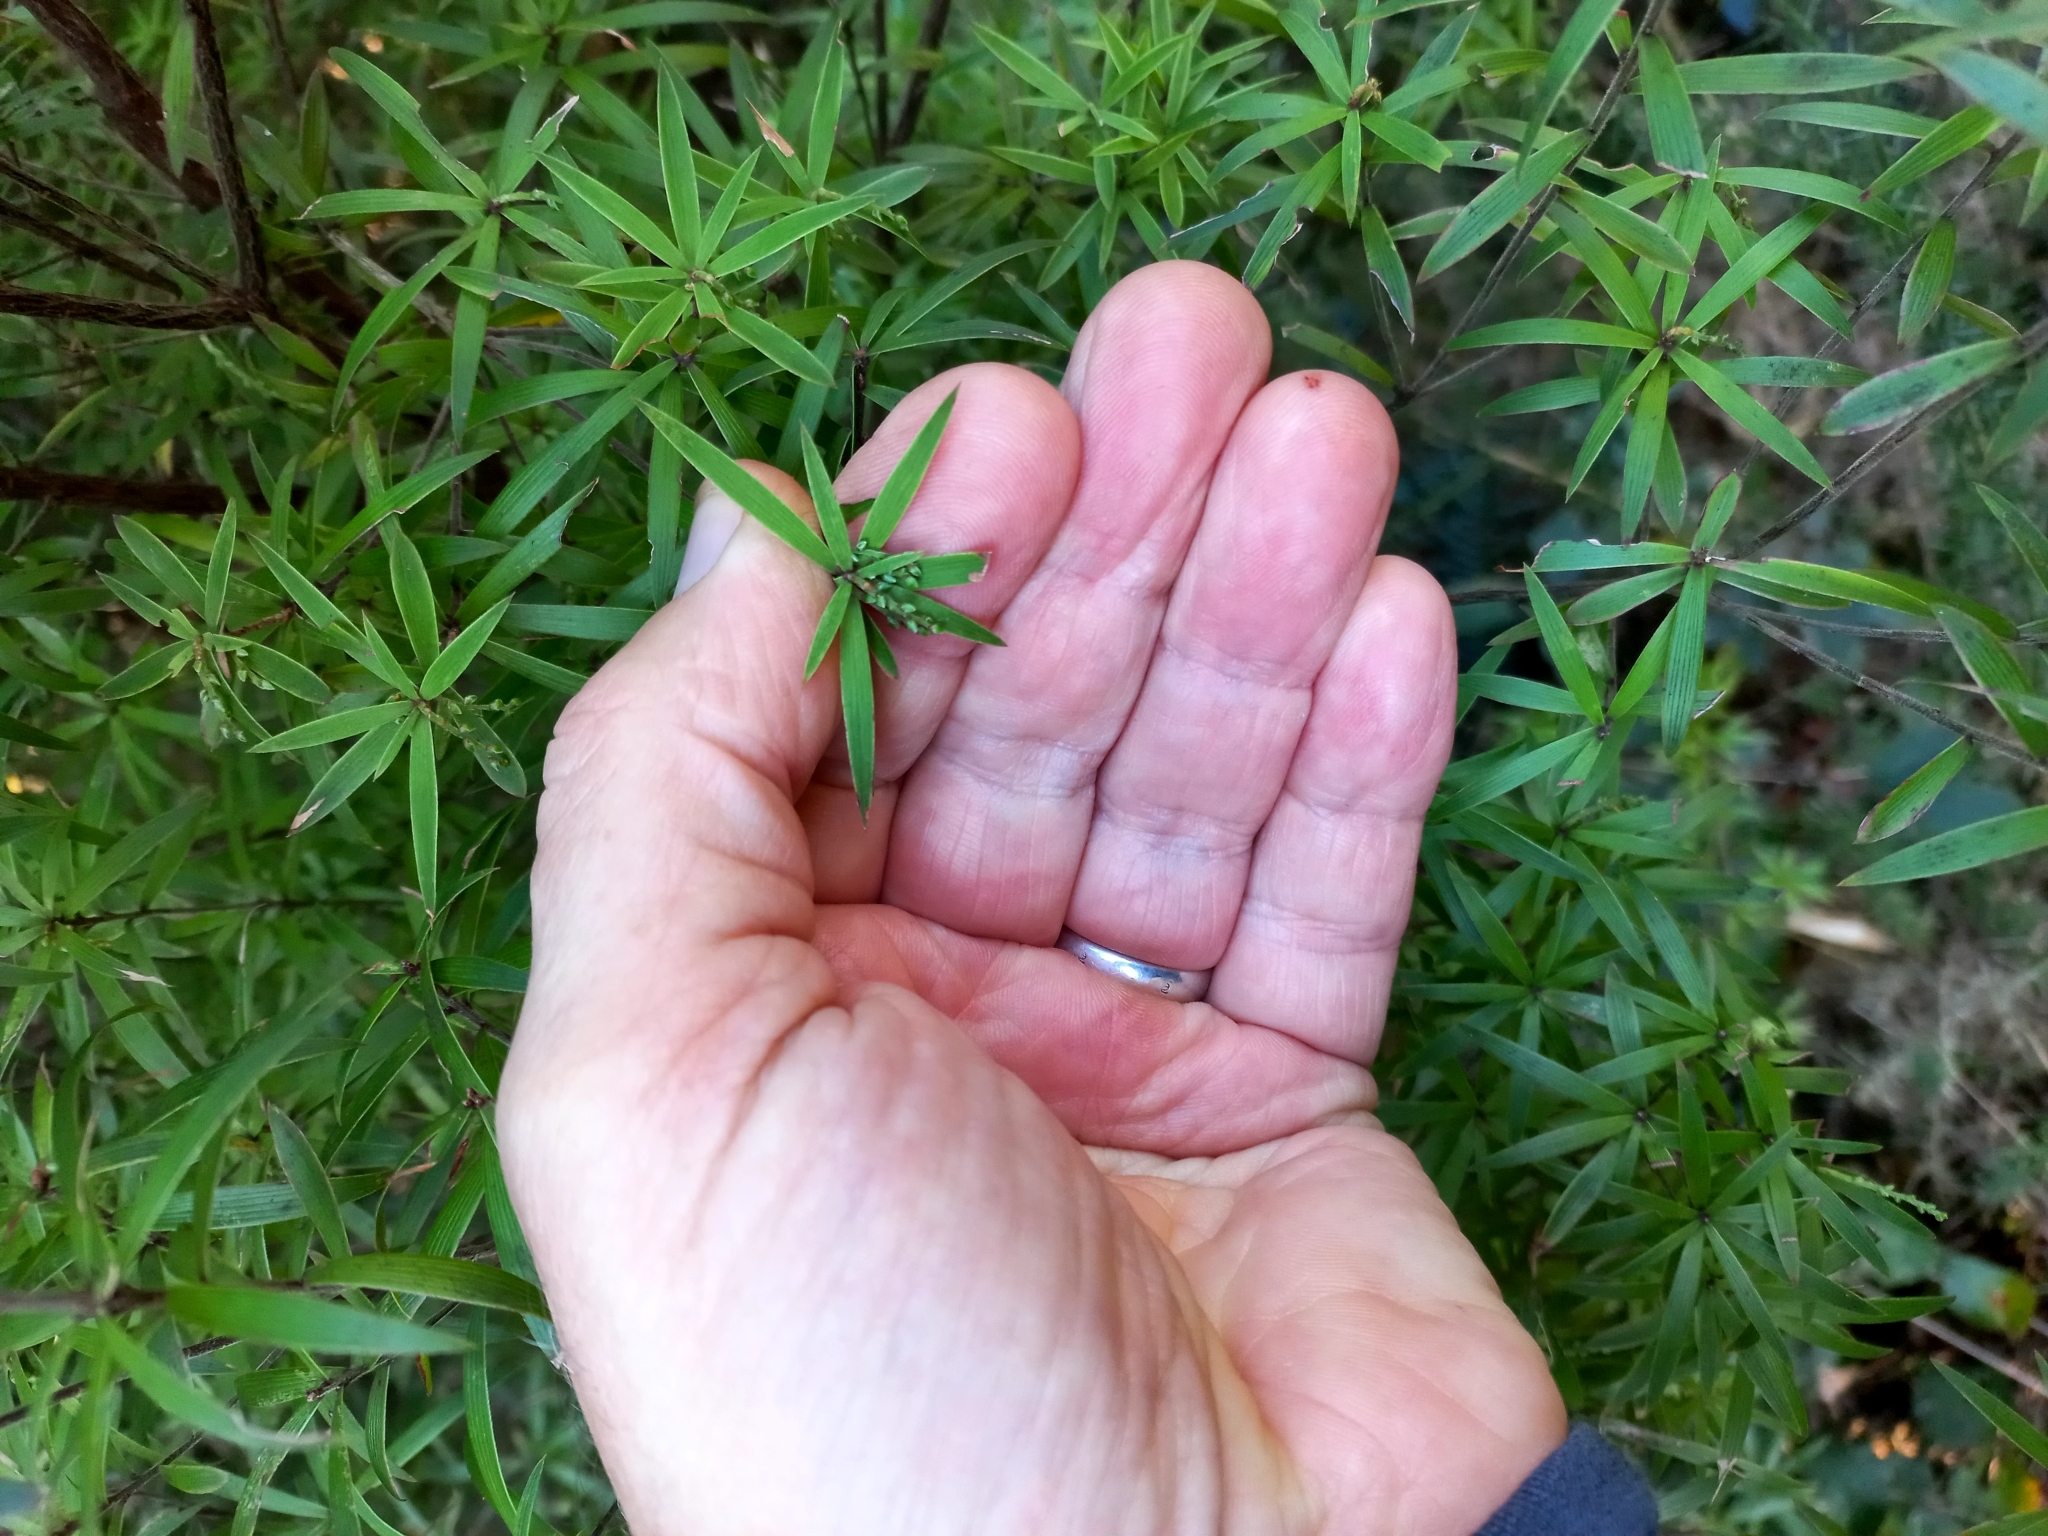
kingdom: Plantae
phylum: Tracheophyta
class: Magnoliopsida
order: Ericales
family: Ericaceae
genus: Leucopogon
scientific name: Leucopogon fasciculatus
